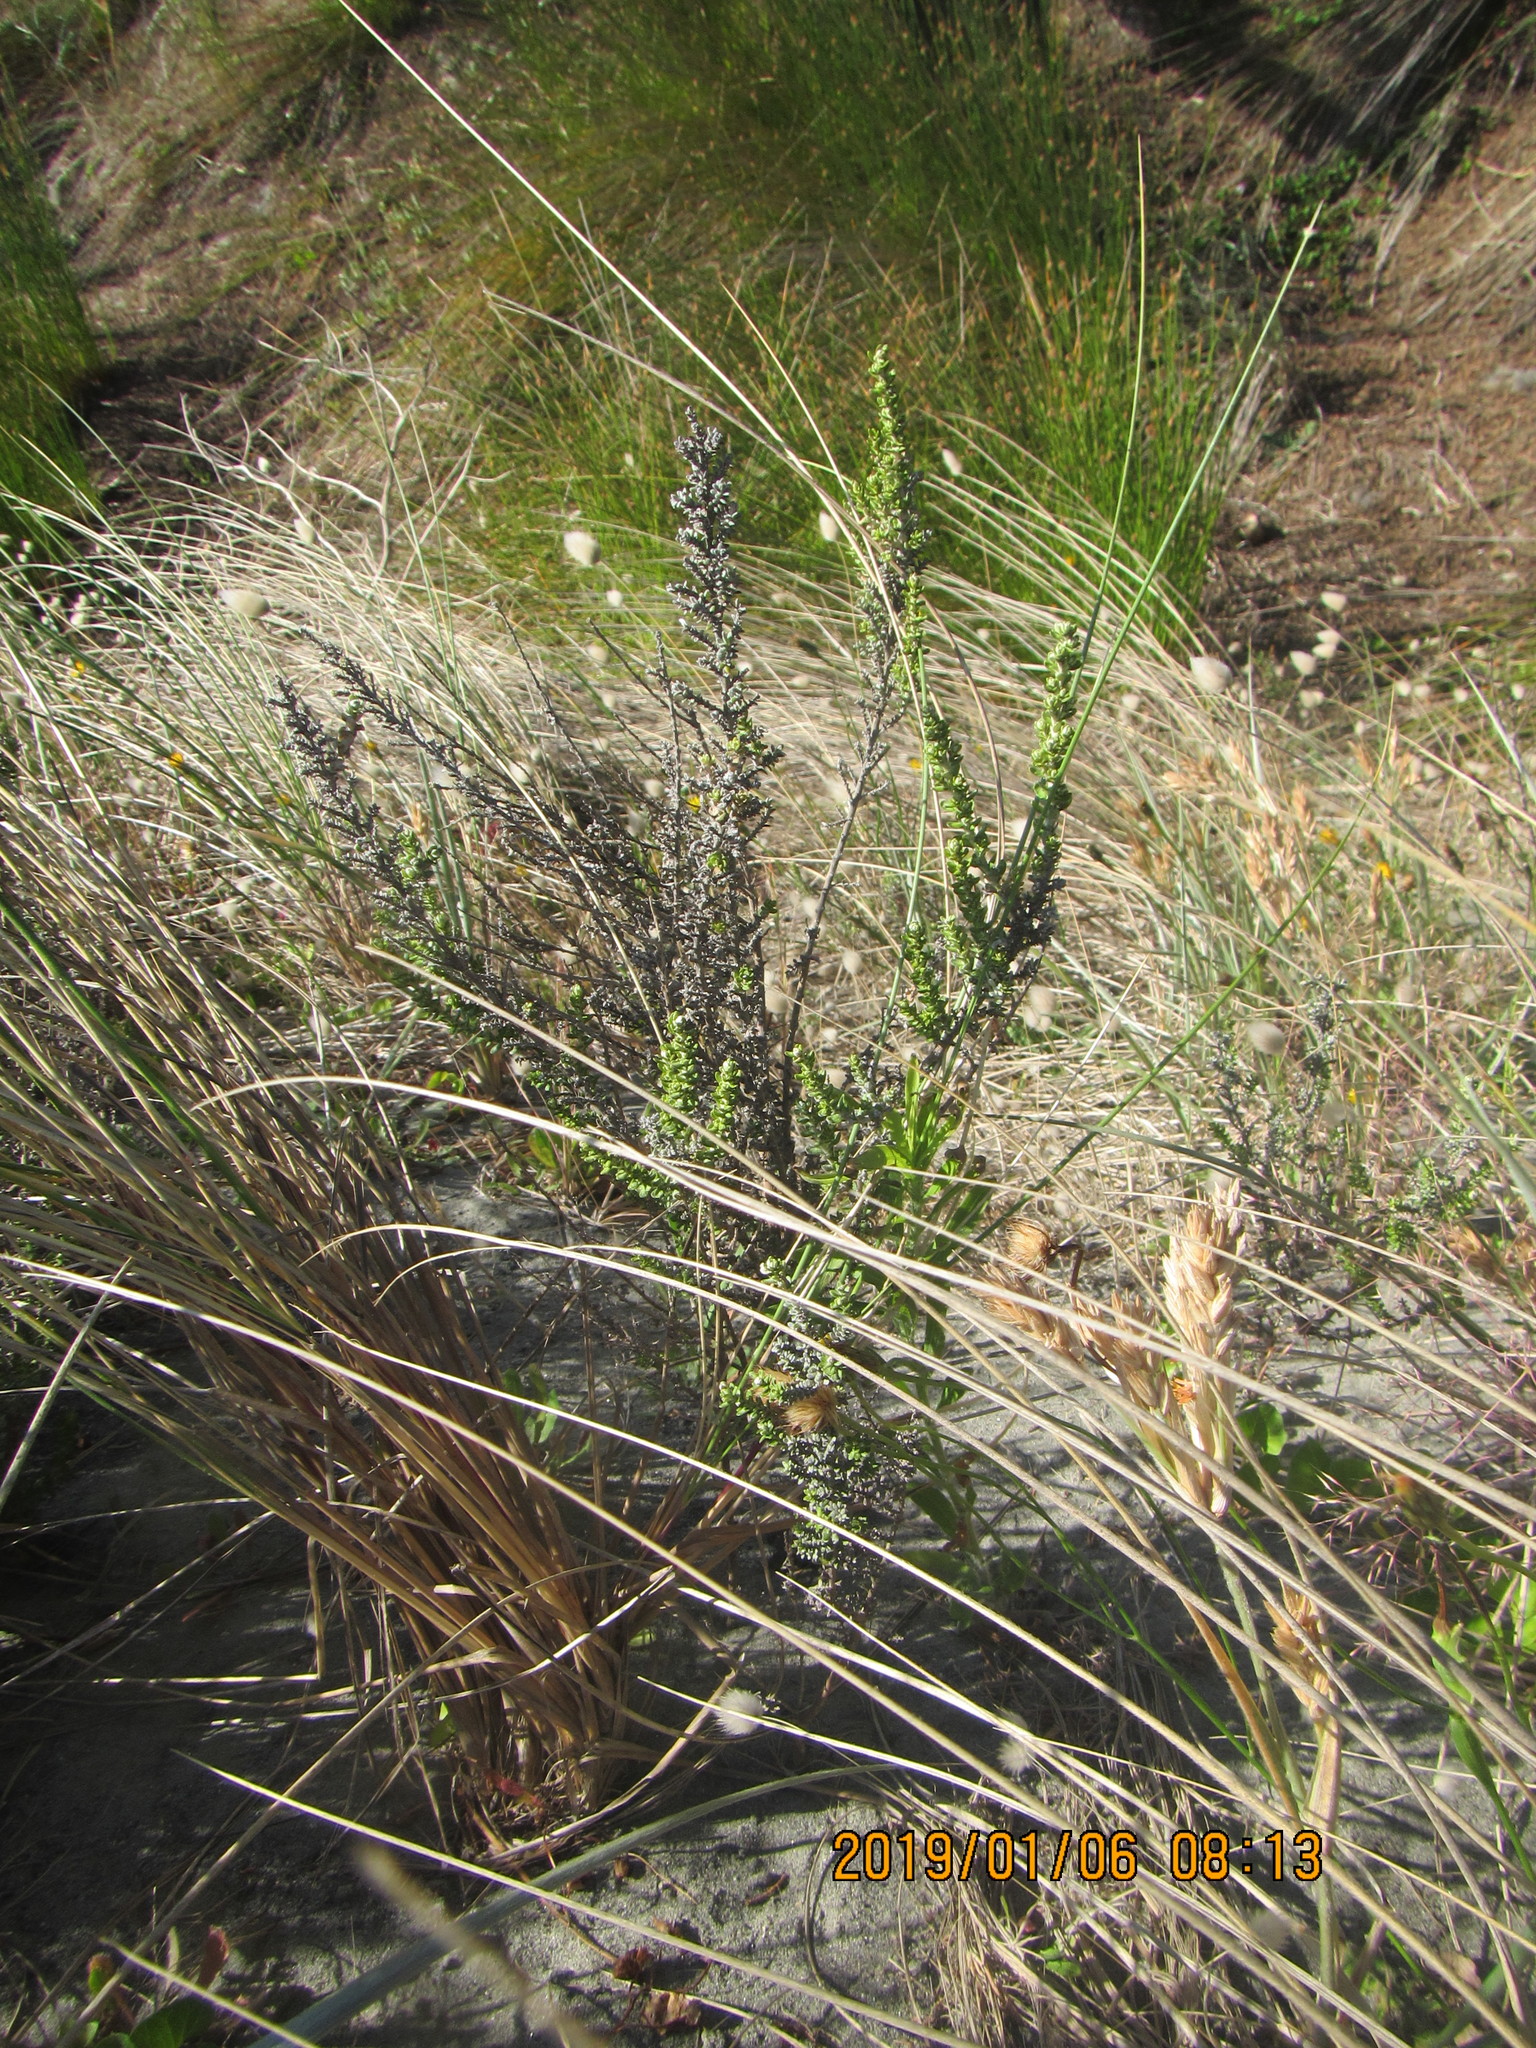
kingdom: Plantae
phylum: Tracheophyta
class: Magnoliopsida
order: Asterales
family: Asteraceae
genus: Ozothamnus
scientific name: Ozothamnus leptophyllus
